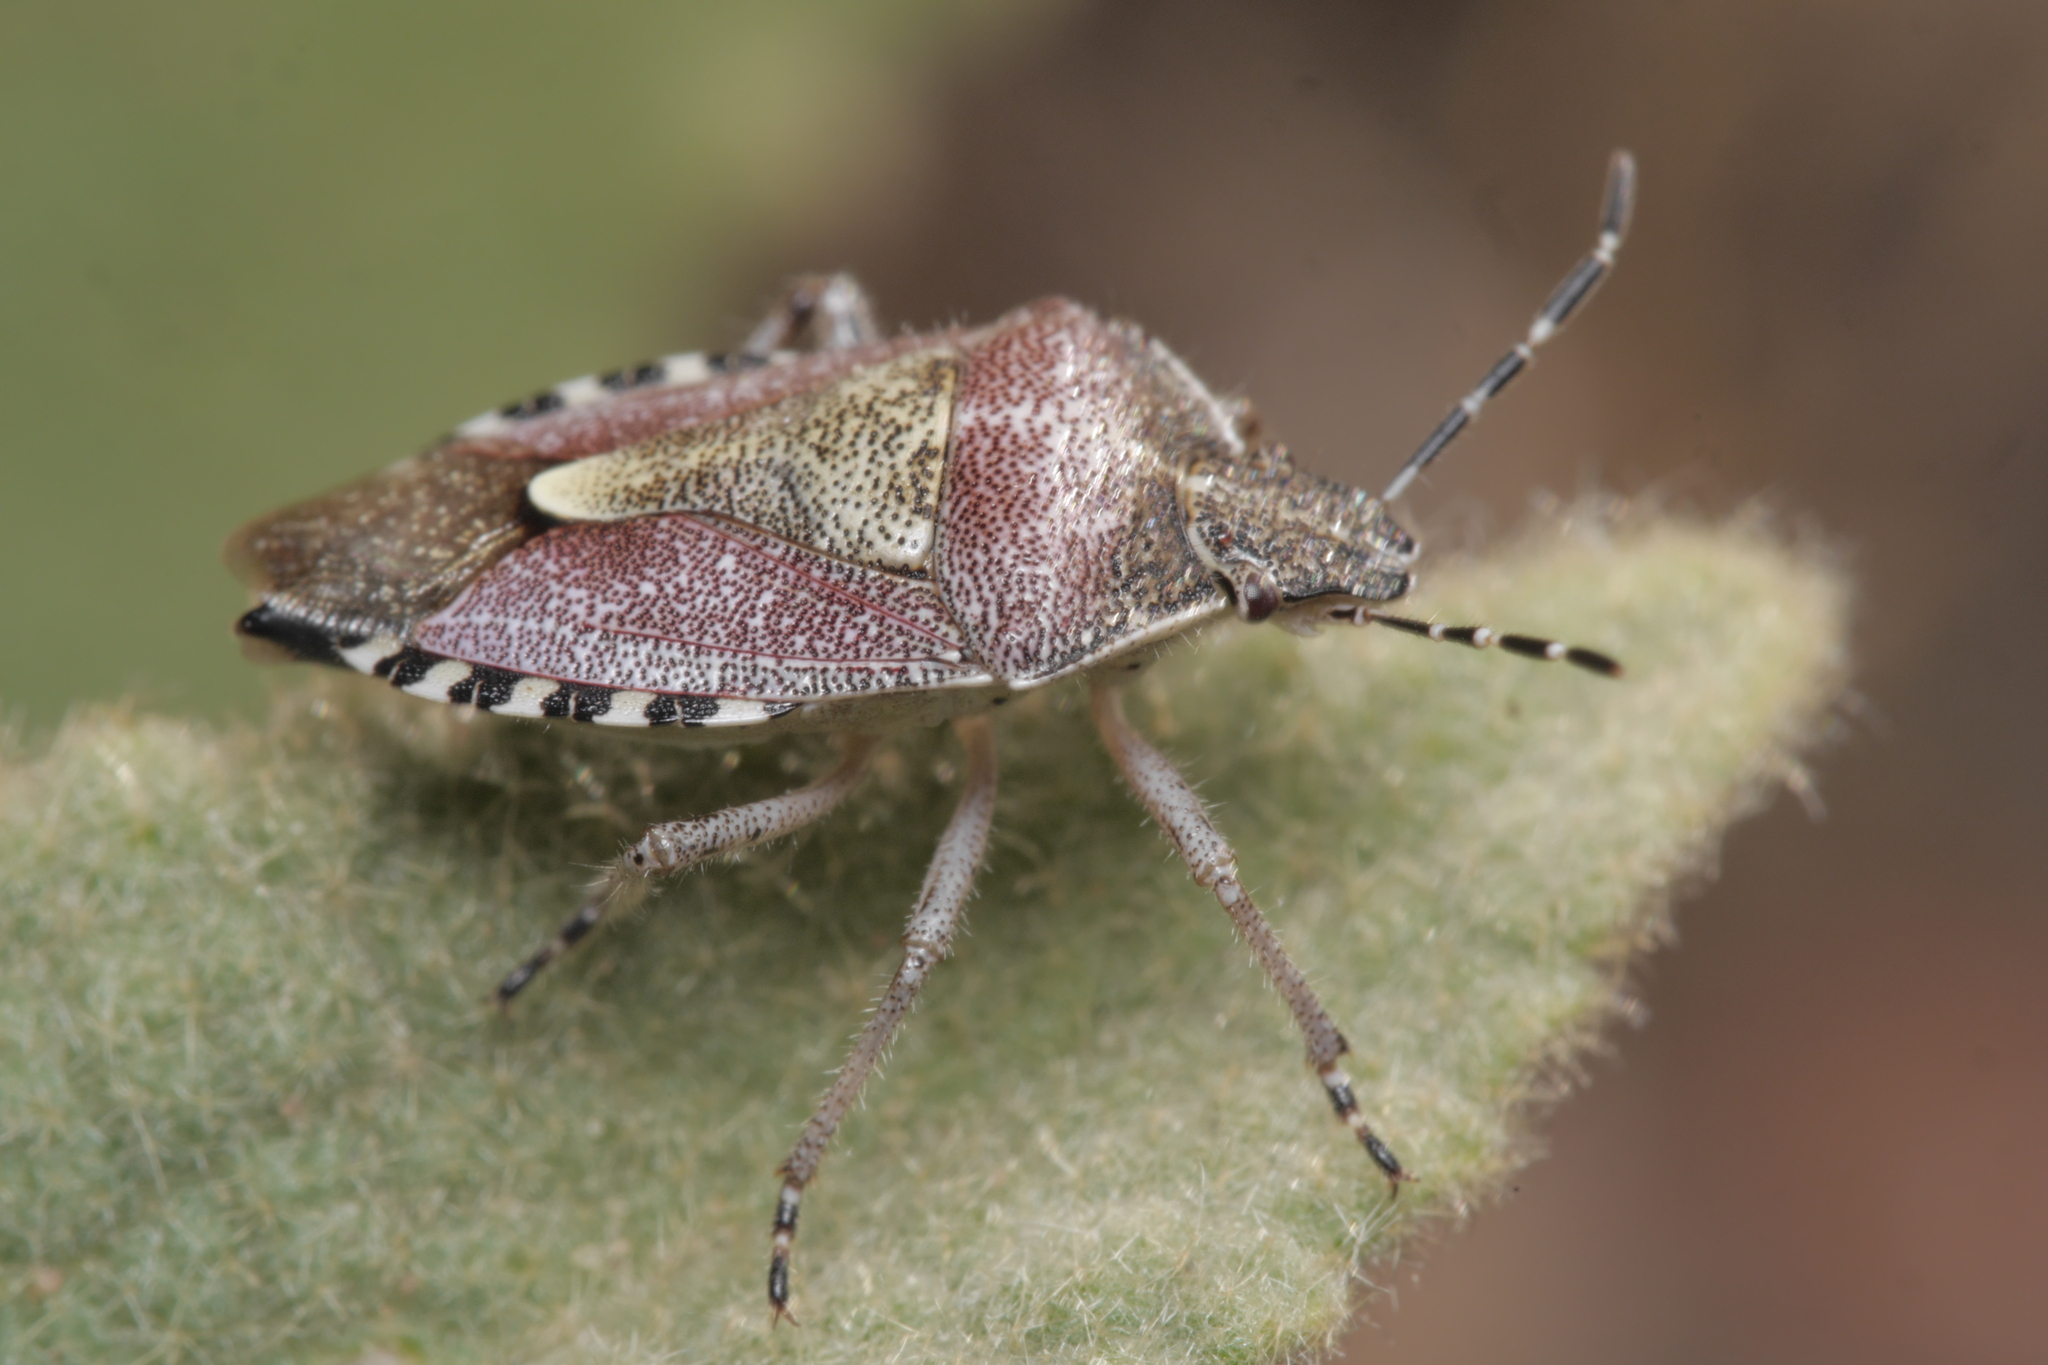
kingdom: Animalia
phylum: Arthropoda
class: Insecta
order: Hemiptera
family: Pentatomidae
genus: Dolycoris
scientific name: Dolycoris baccarum
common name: Sloe bug
